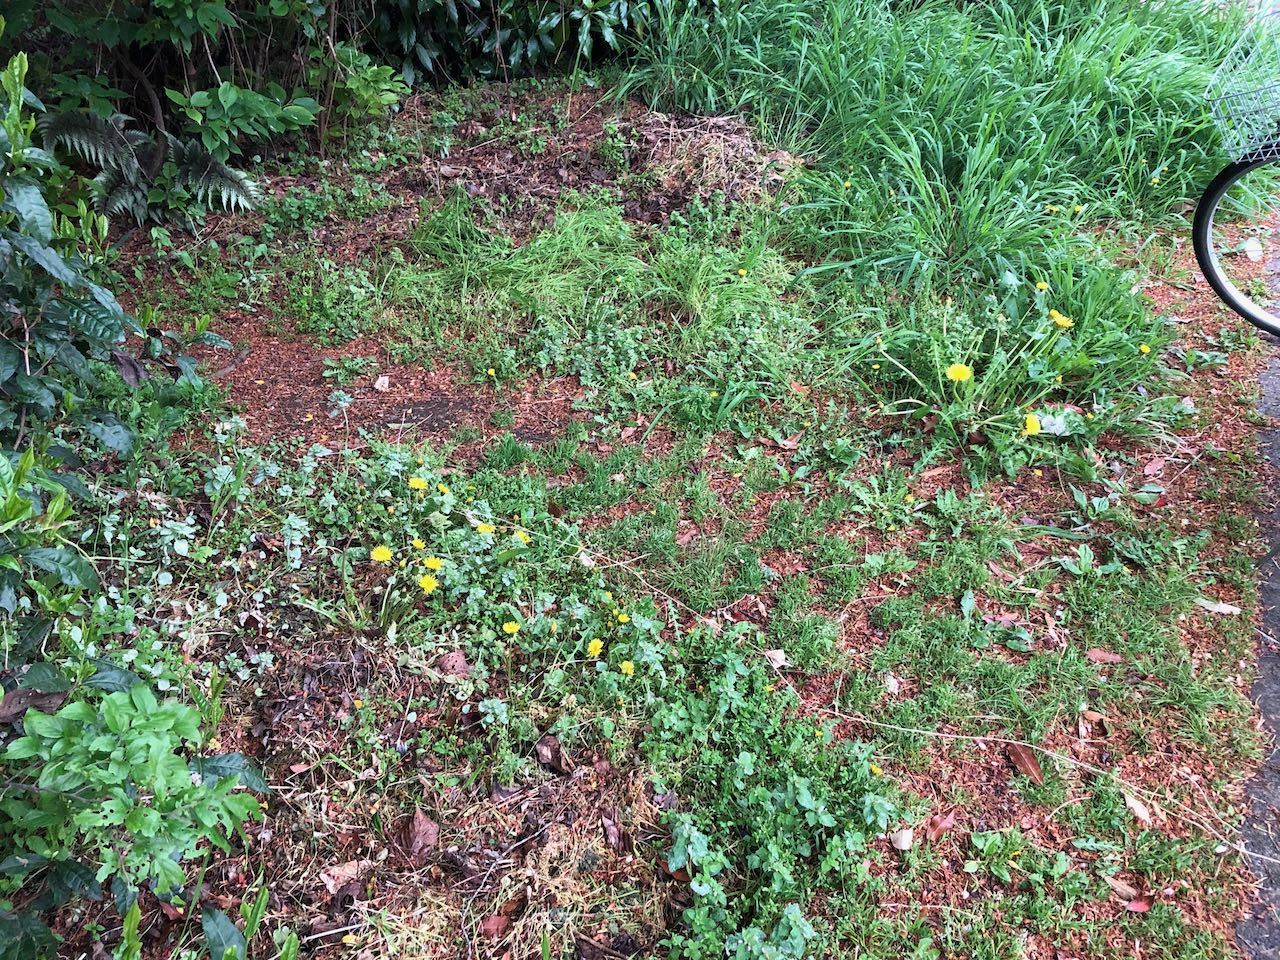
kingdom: Plantae
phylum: Tracheophyta
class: Magnoliopsida
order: Asterales
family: Asteraceae
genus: Taraxacum
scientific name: Taraxacum officinale
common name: Common dandelion
